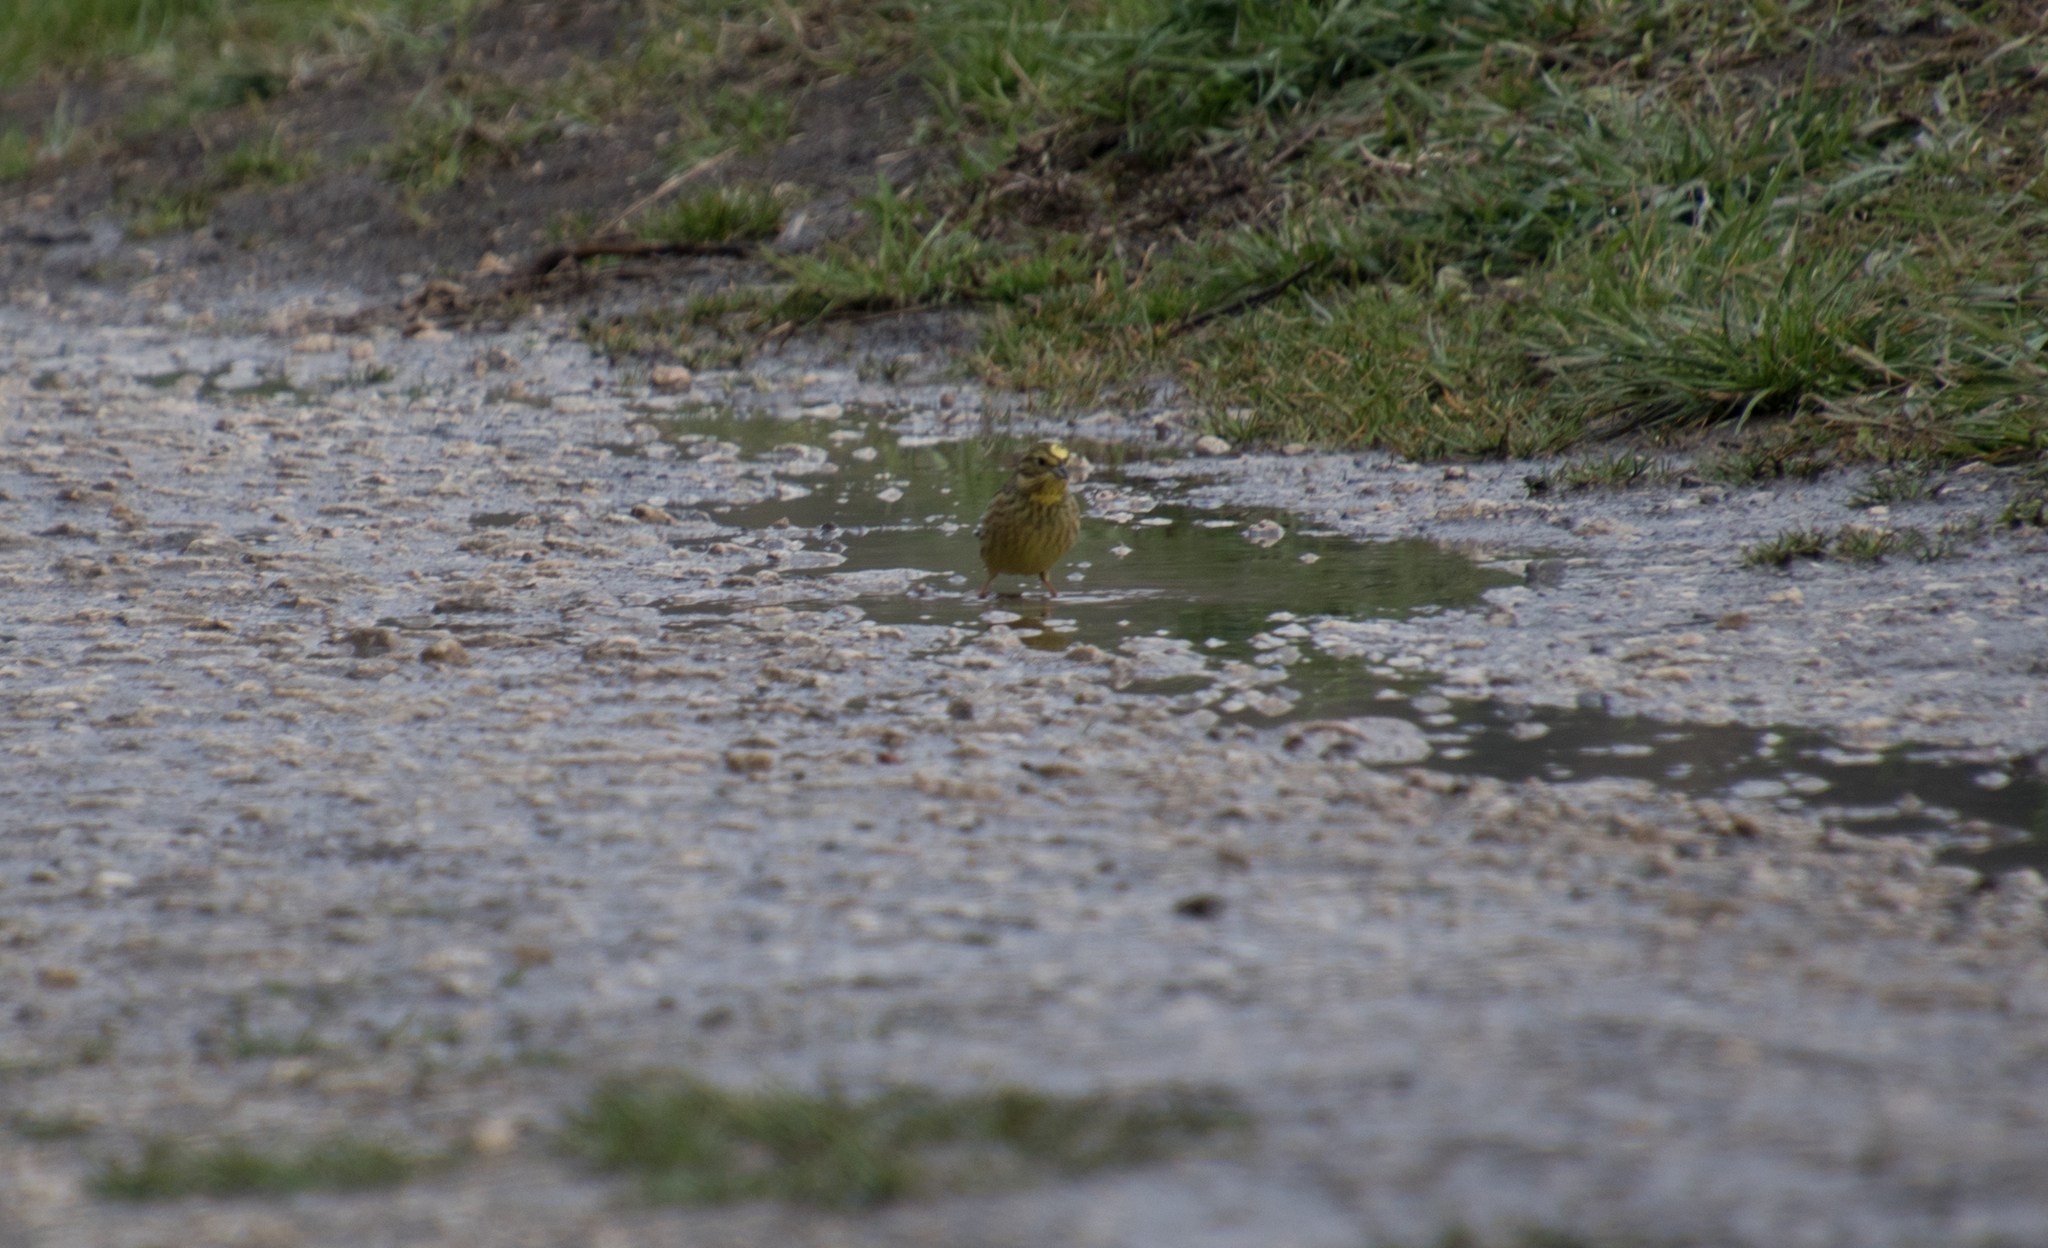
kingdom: Animalia
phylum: Chordata
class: Aves
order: Passeriformes
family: Emberizidae
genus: Emberiza
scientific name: Emberiza citrinella
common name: Yellowhammer
